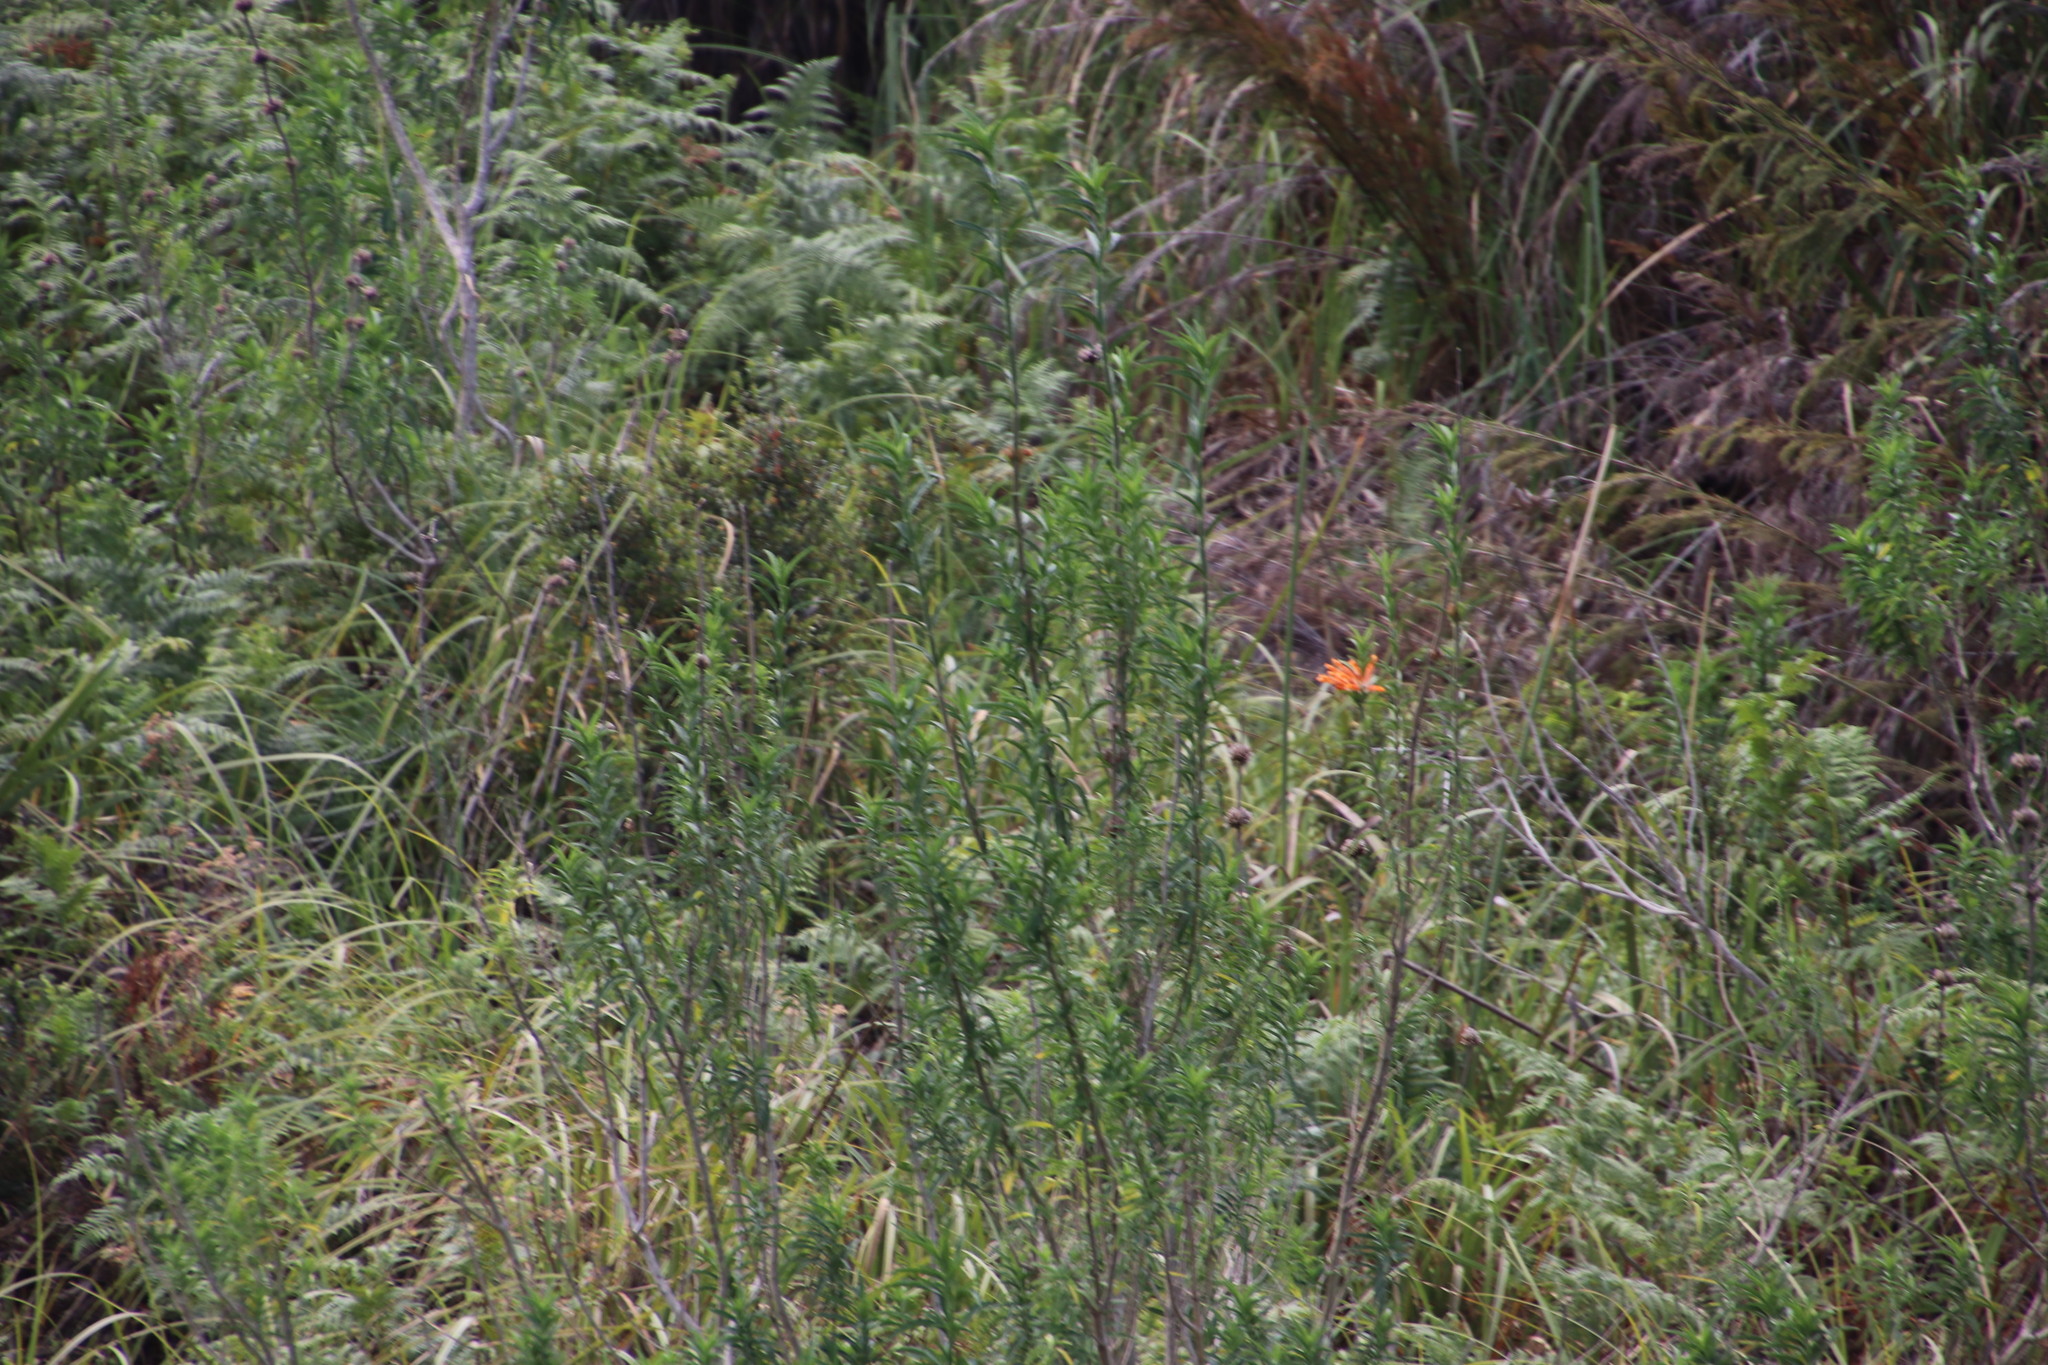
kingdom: Plantae
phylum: Tracheophyta
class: Magnoliopsida
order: Lamiales
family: Lamiaceae
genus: Leonotis
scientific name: Leonotis leonurus
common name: Lion's ear
